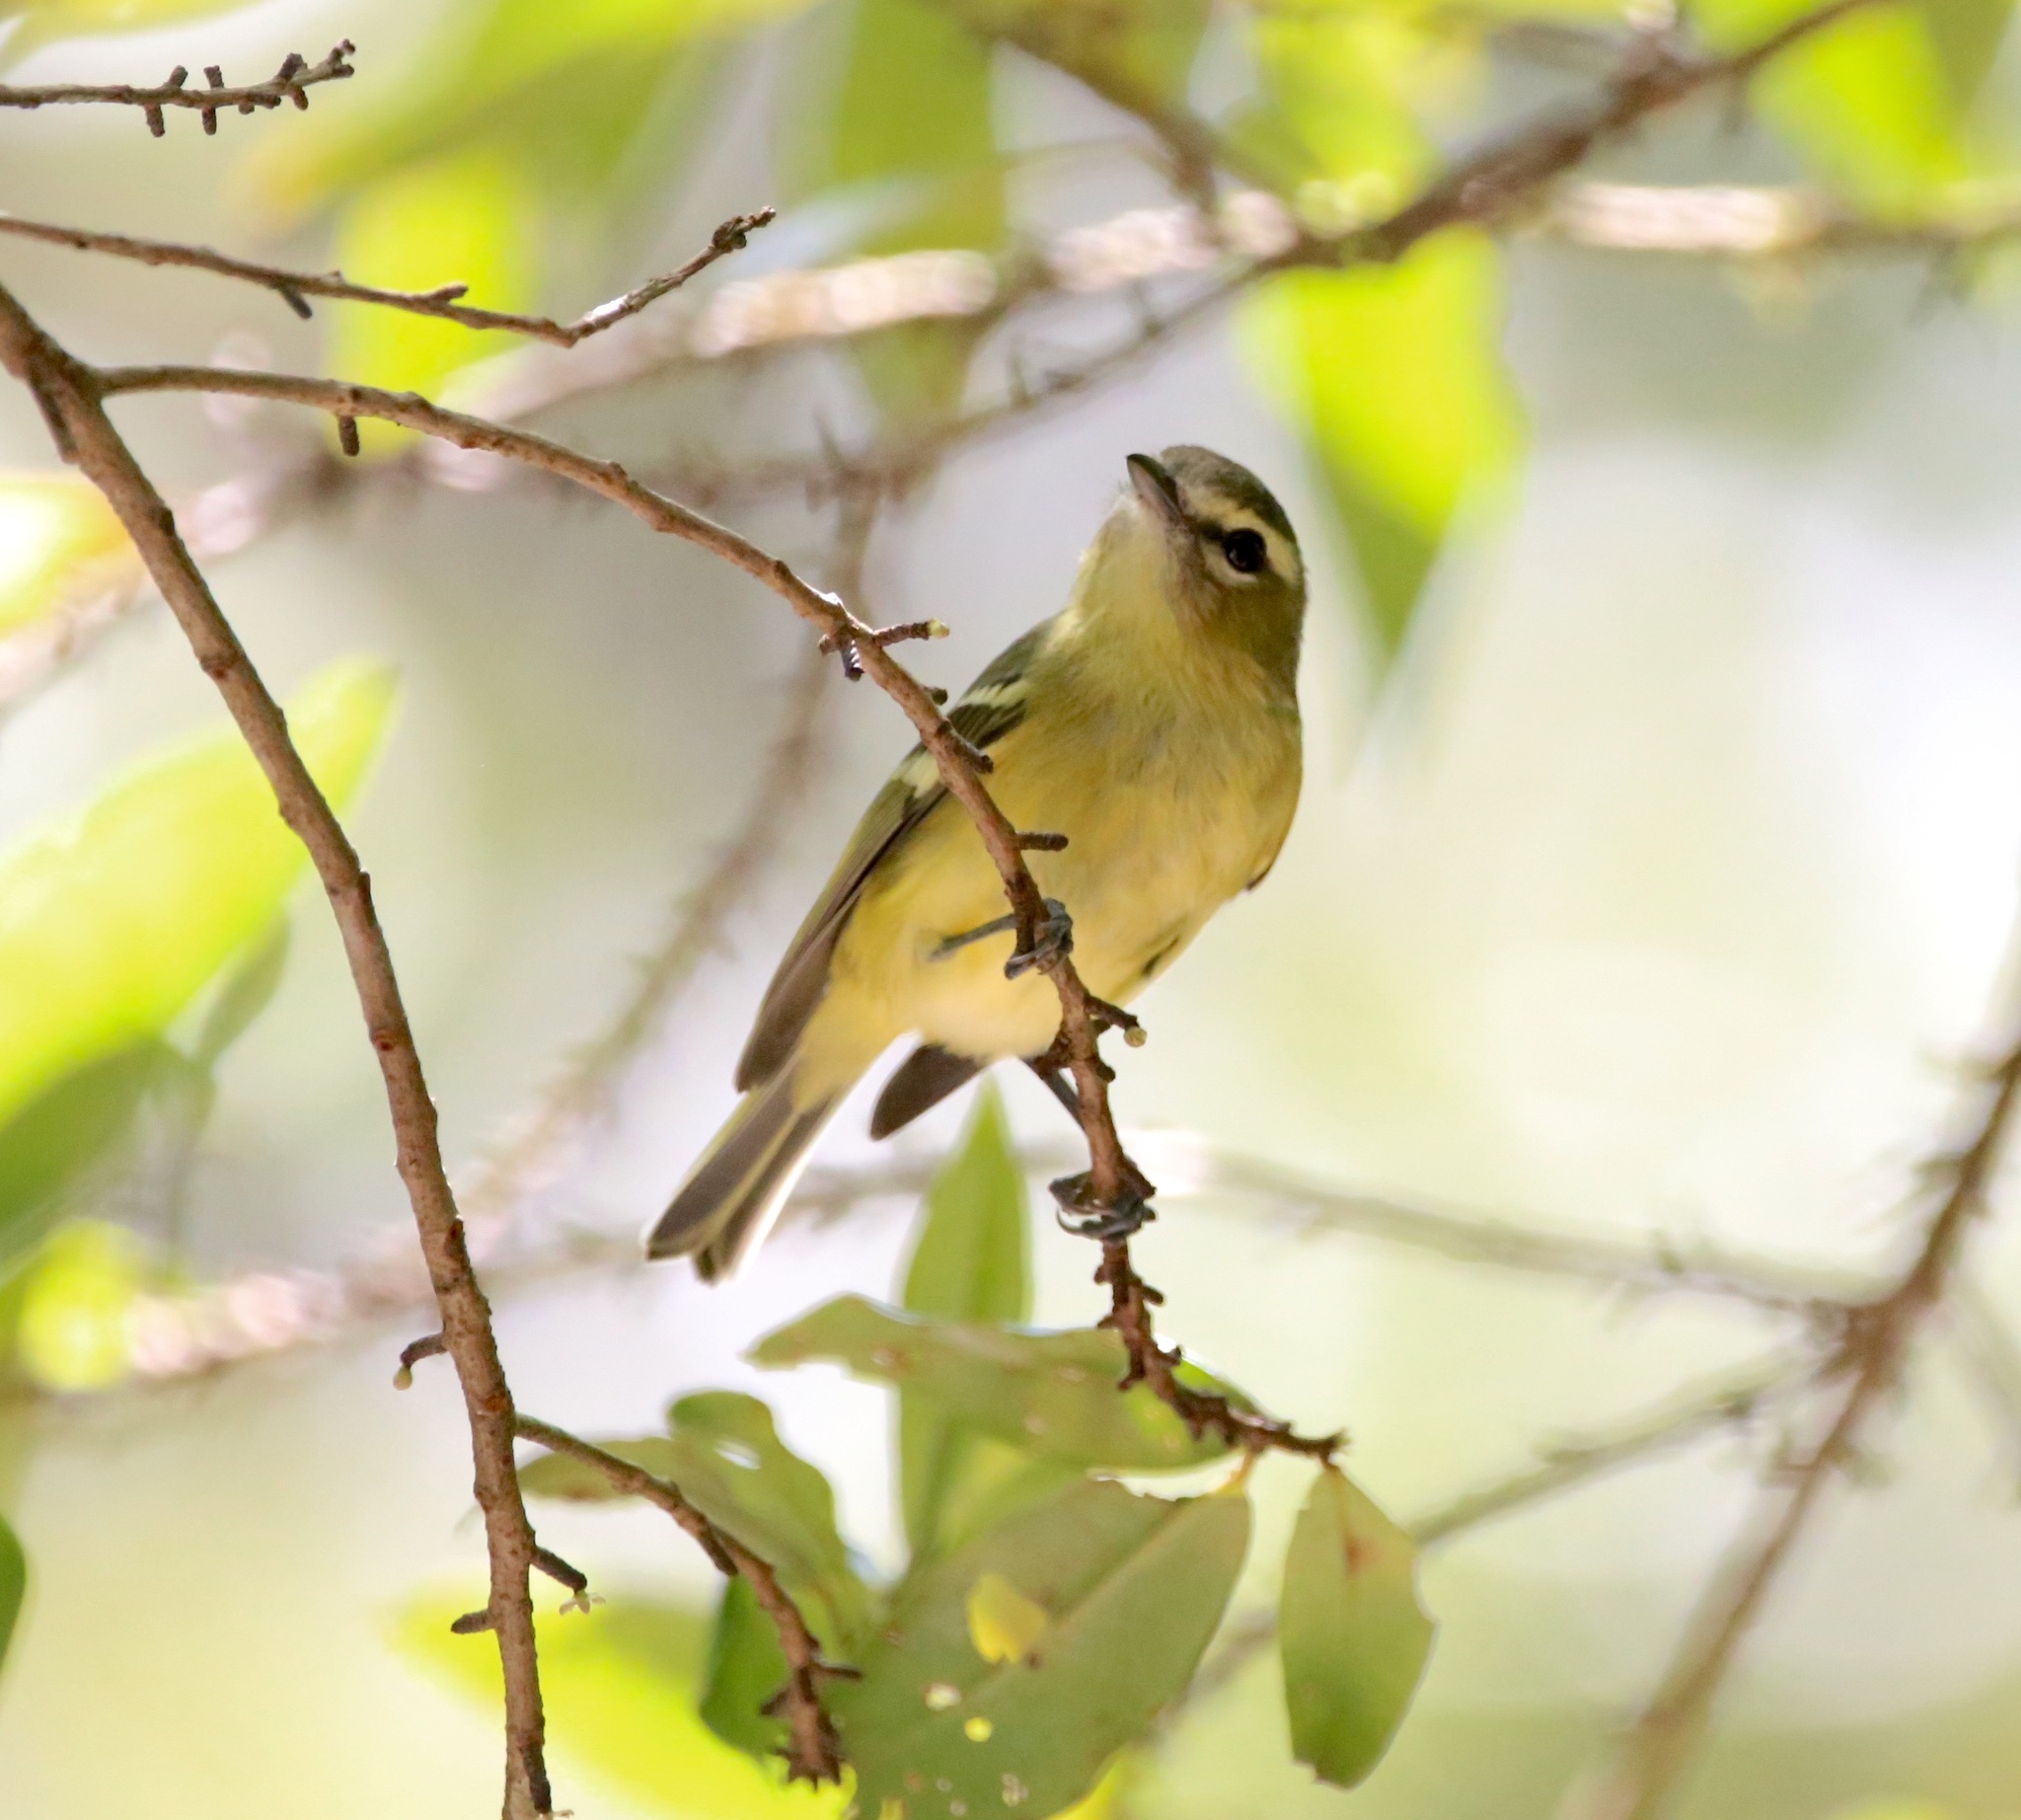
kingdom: Animalia
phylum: Chordata
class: Aves
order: Passeriformes
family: Vireonidae
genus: Vireo
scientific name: Vireo carmioli
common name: Yellow-winged vireo
